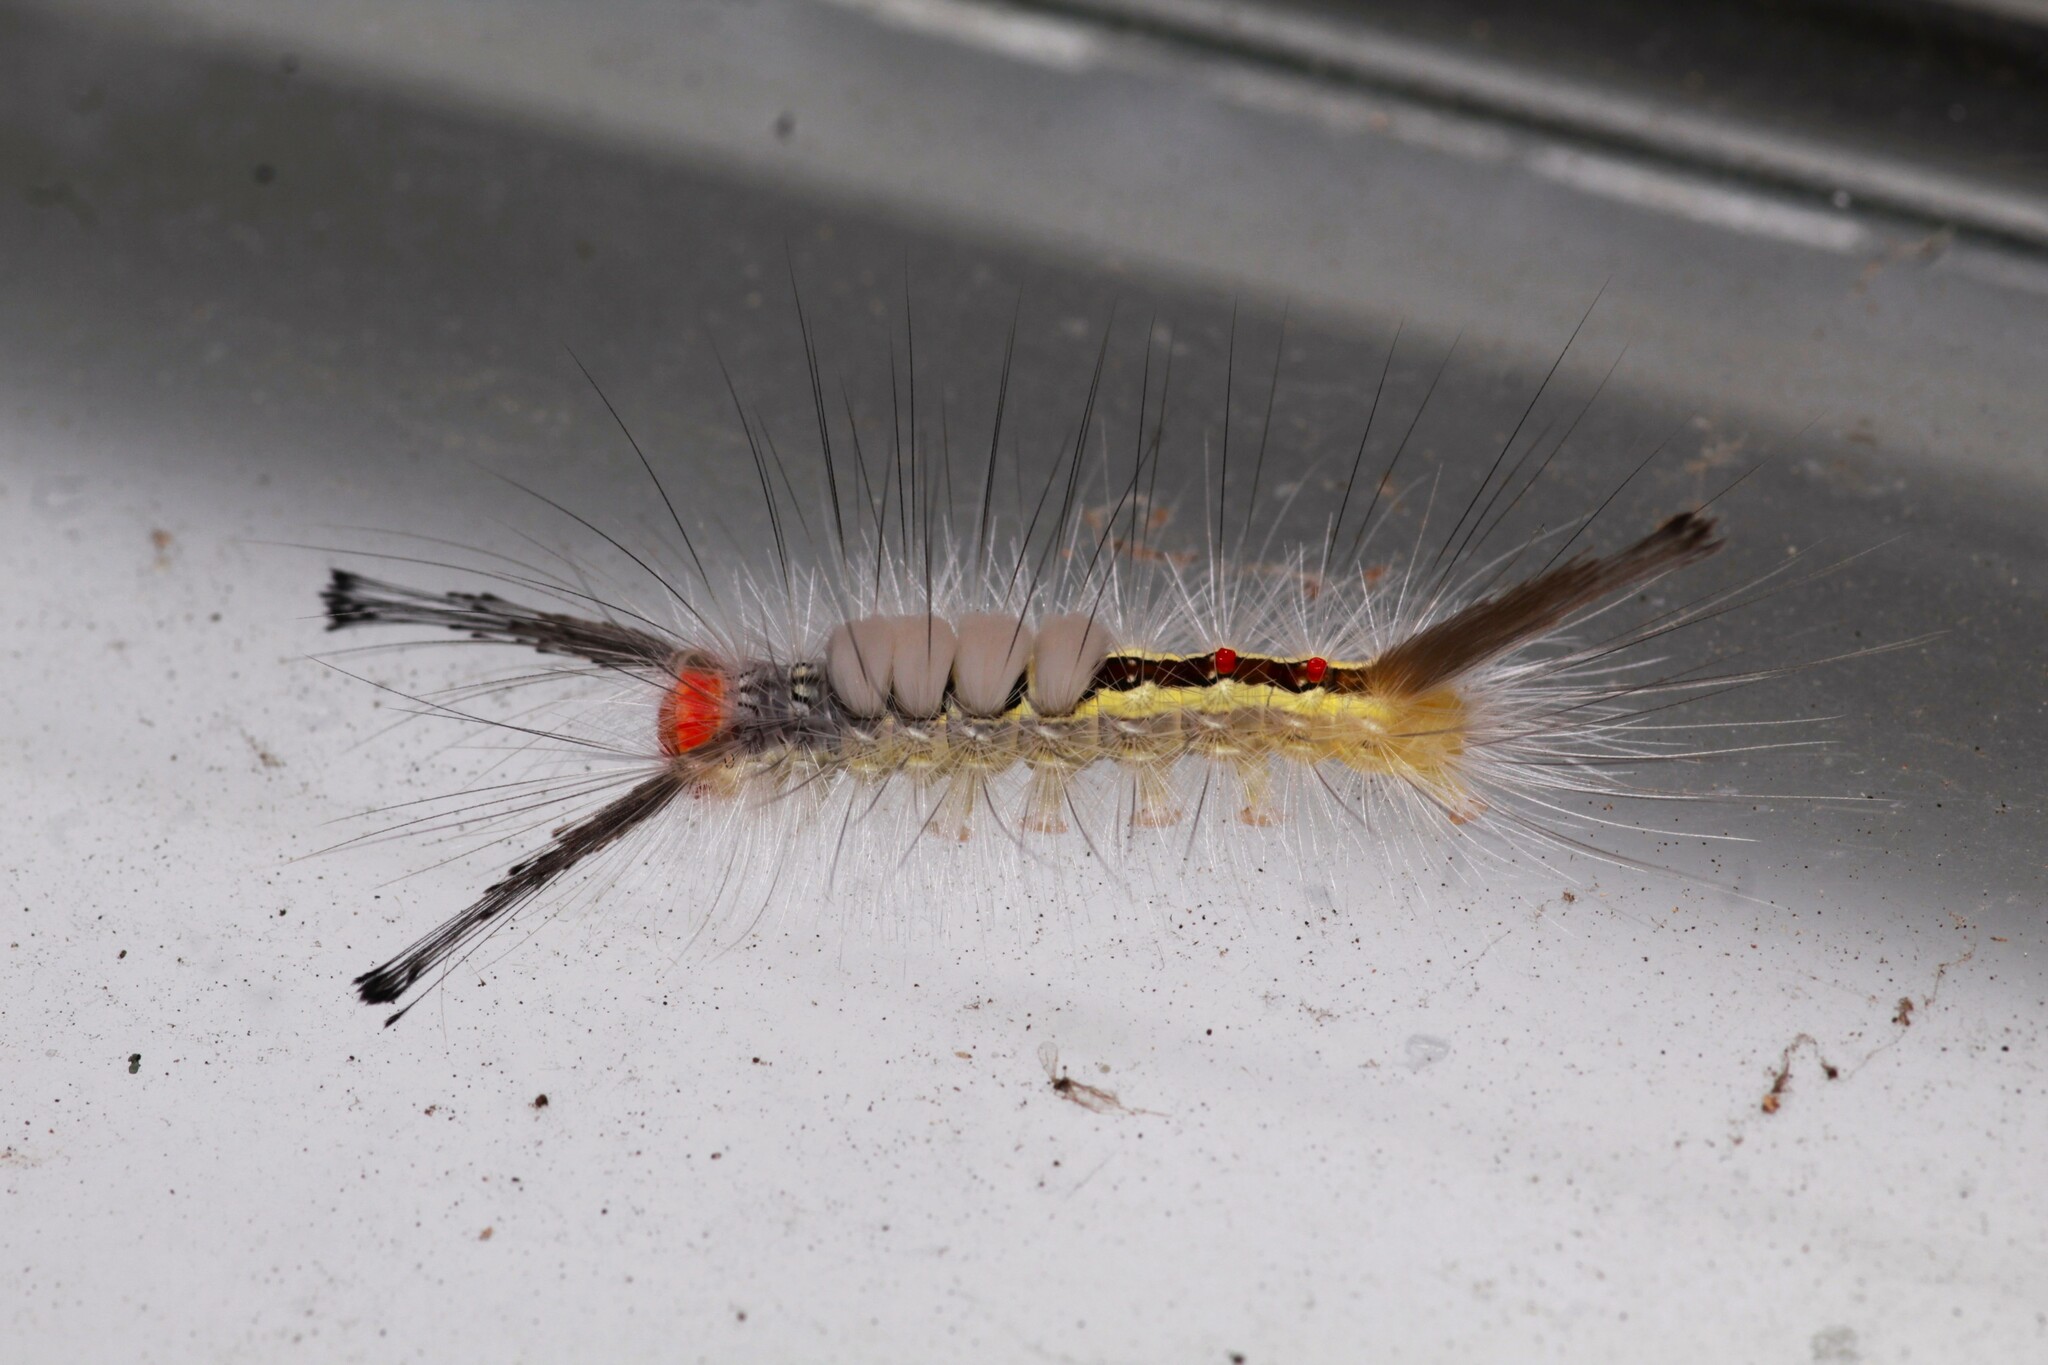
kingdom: Animalia
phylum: Arthropoda
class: Insecta
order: Lepidoptera
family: Erebidae
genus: Orgyia
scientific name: Orgyia leucostigma
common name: White-marked tussock moth
